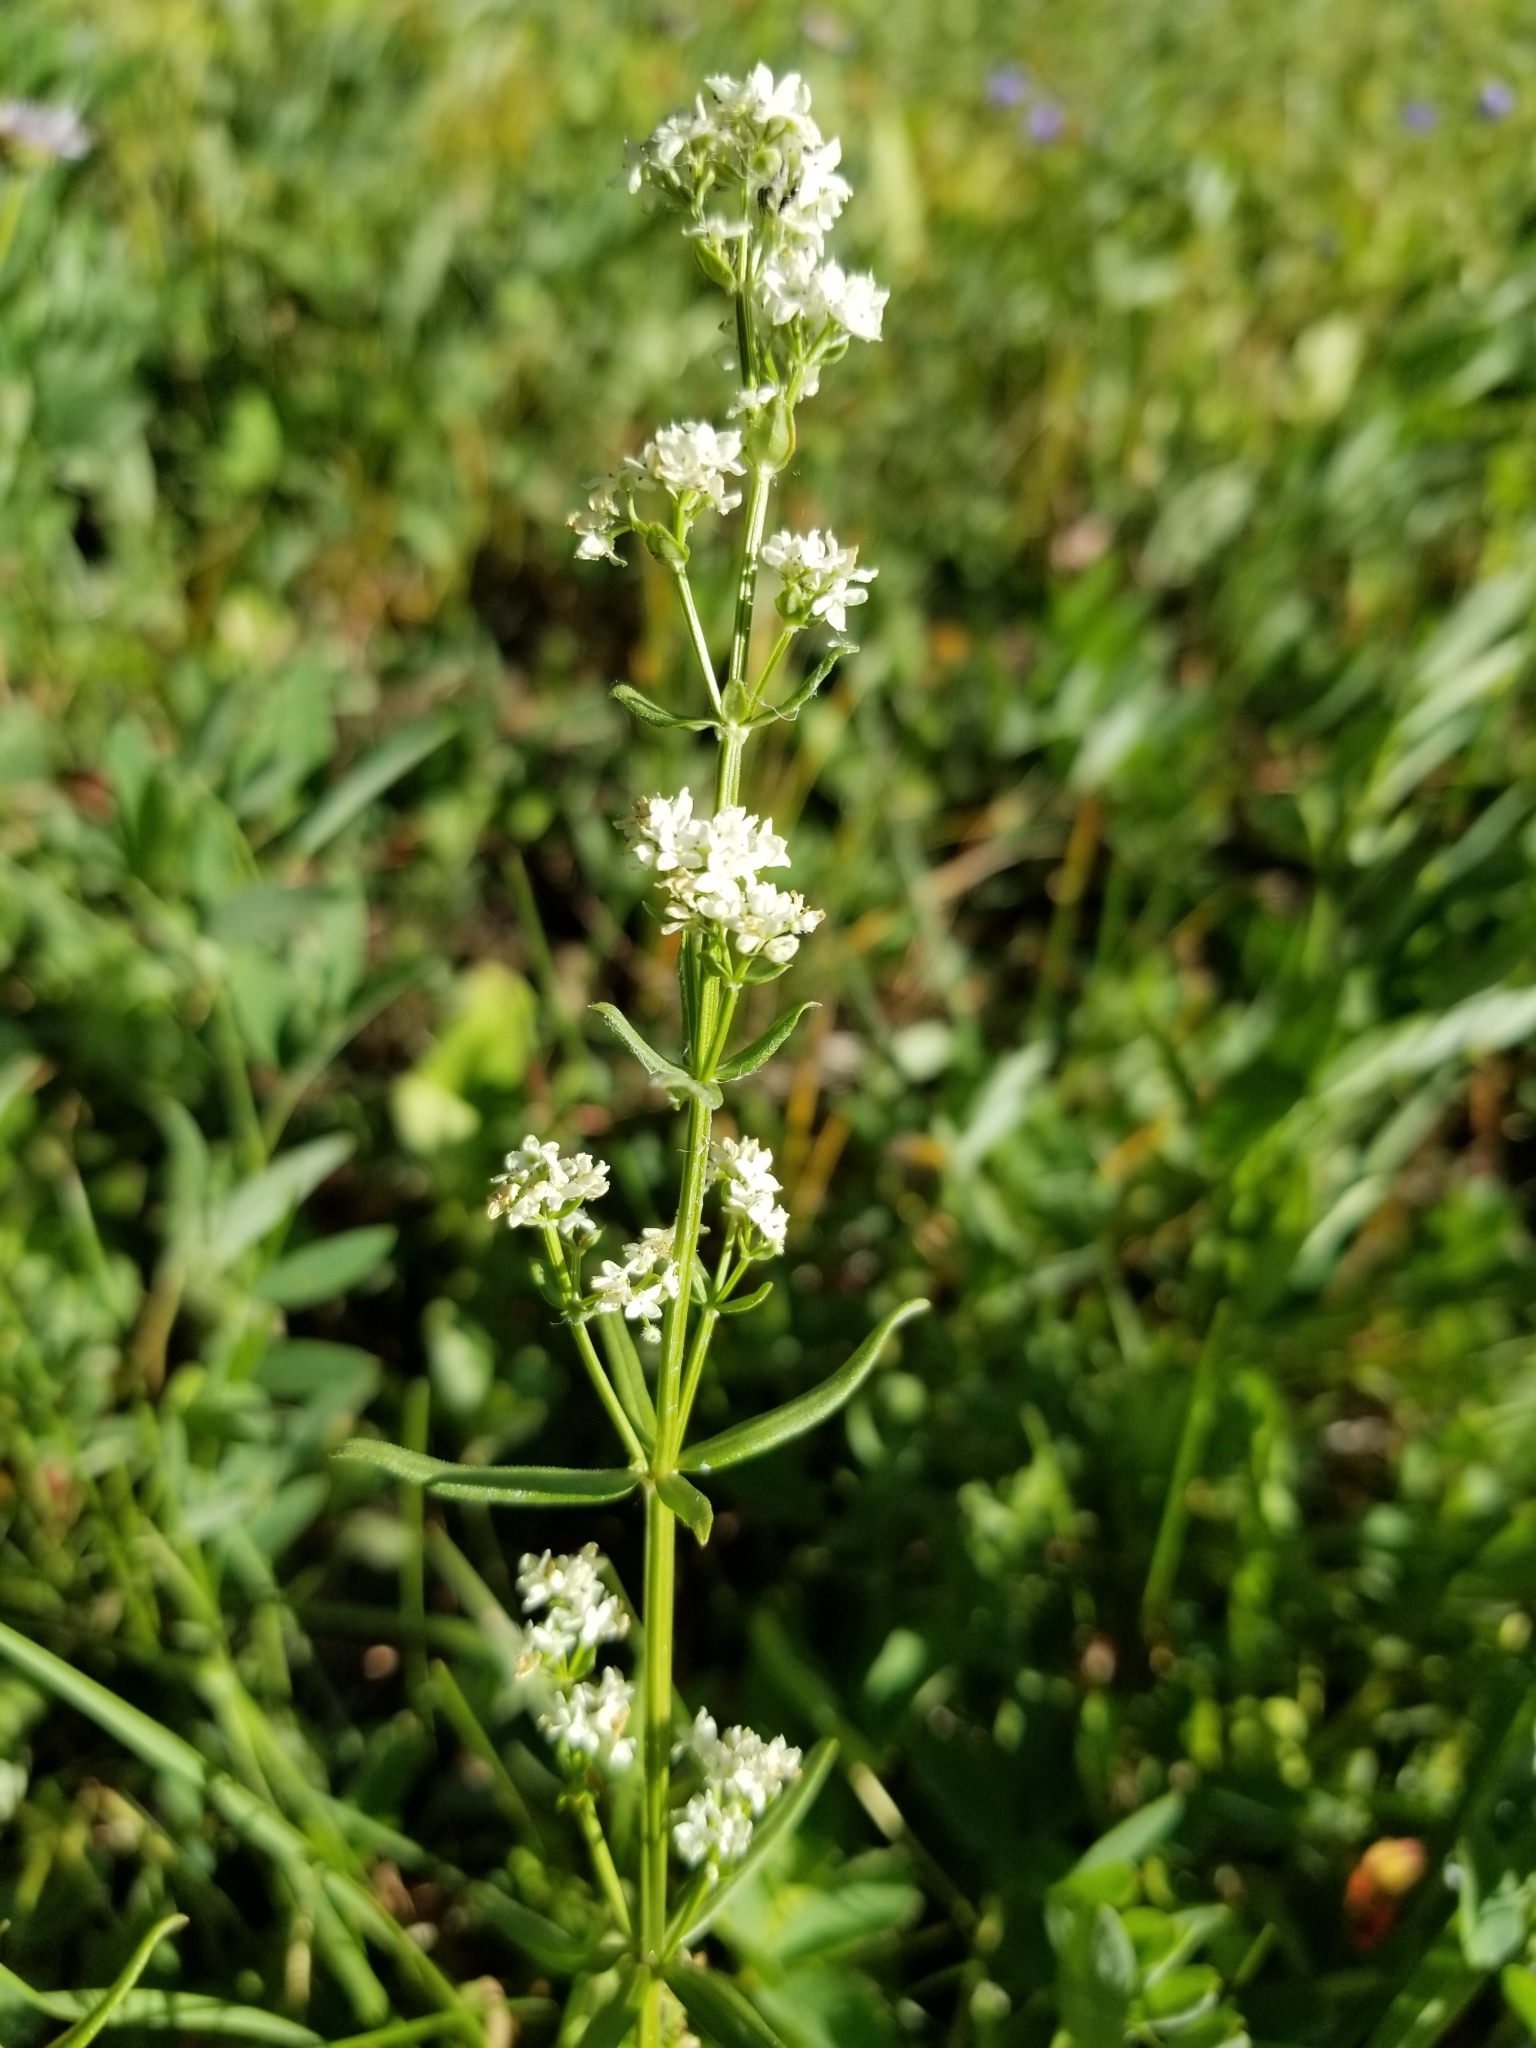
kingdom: Plantae
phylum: Tracheophyta
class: Magnoliopsida
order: Gentianales
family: Rubiaceae
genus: Galium
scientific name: Galium boreale
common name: Northern bedstraw
